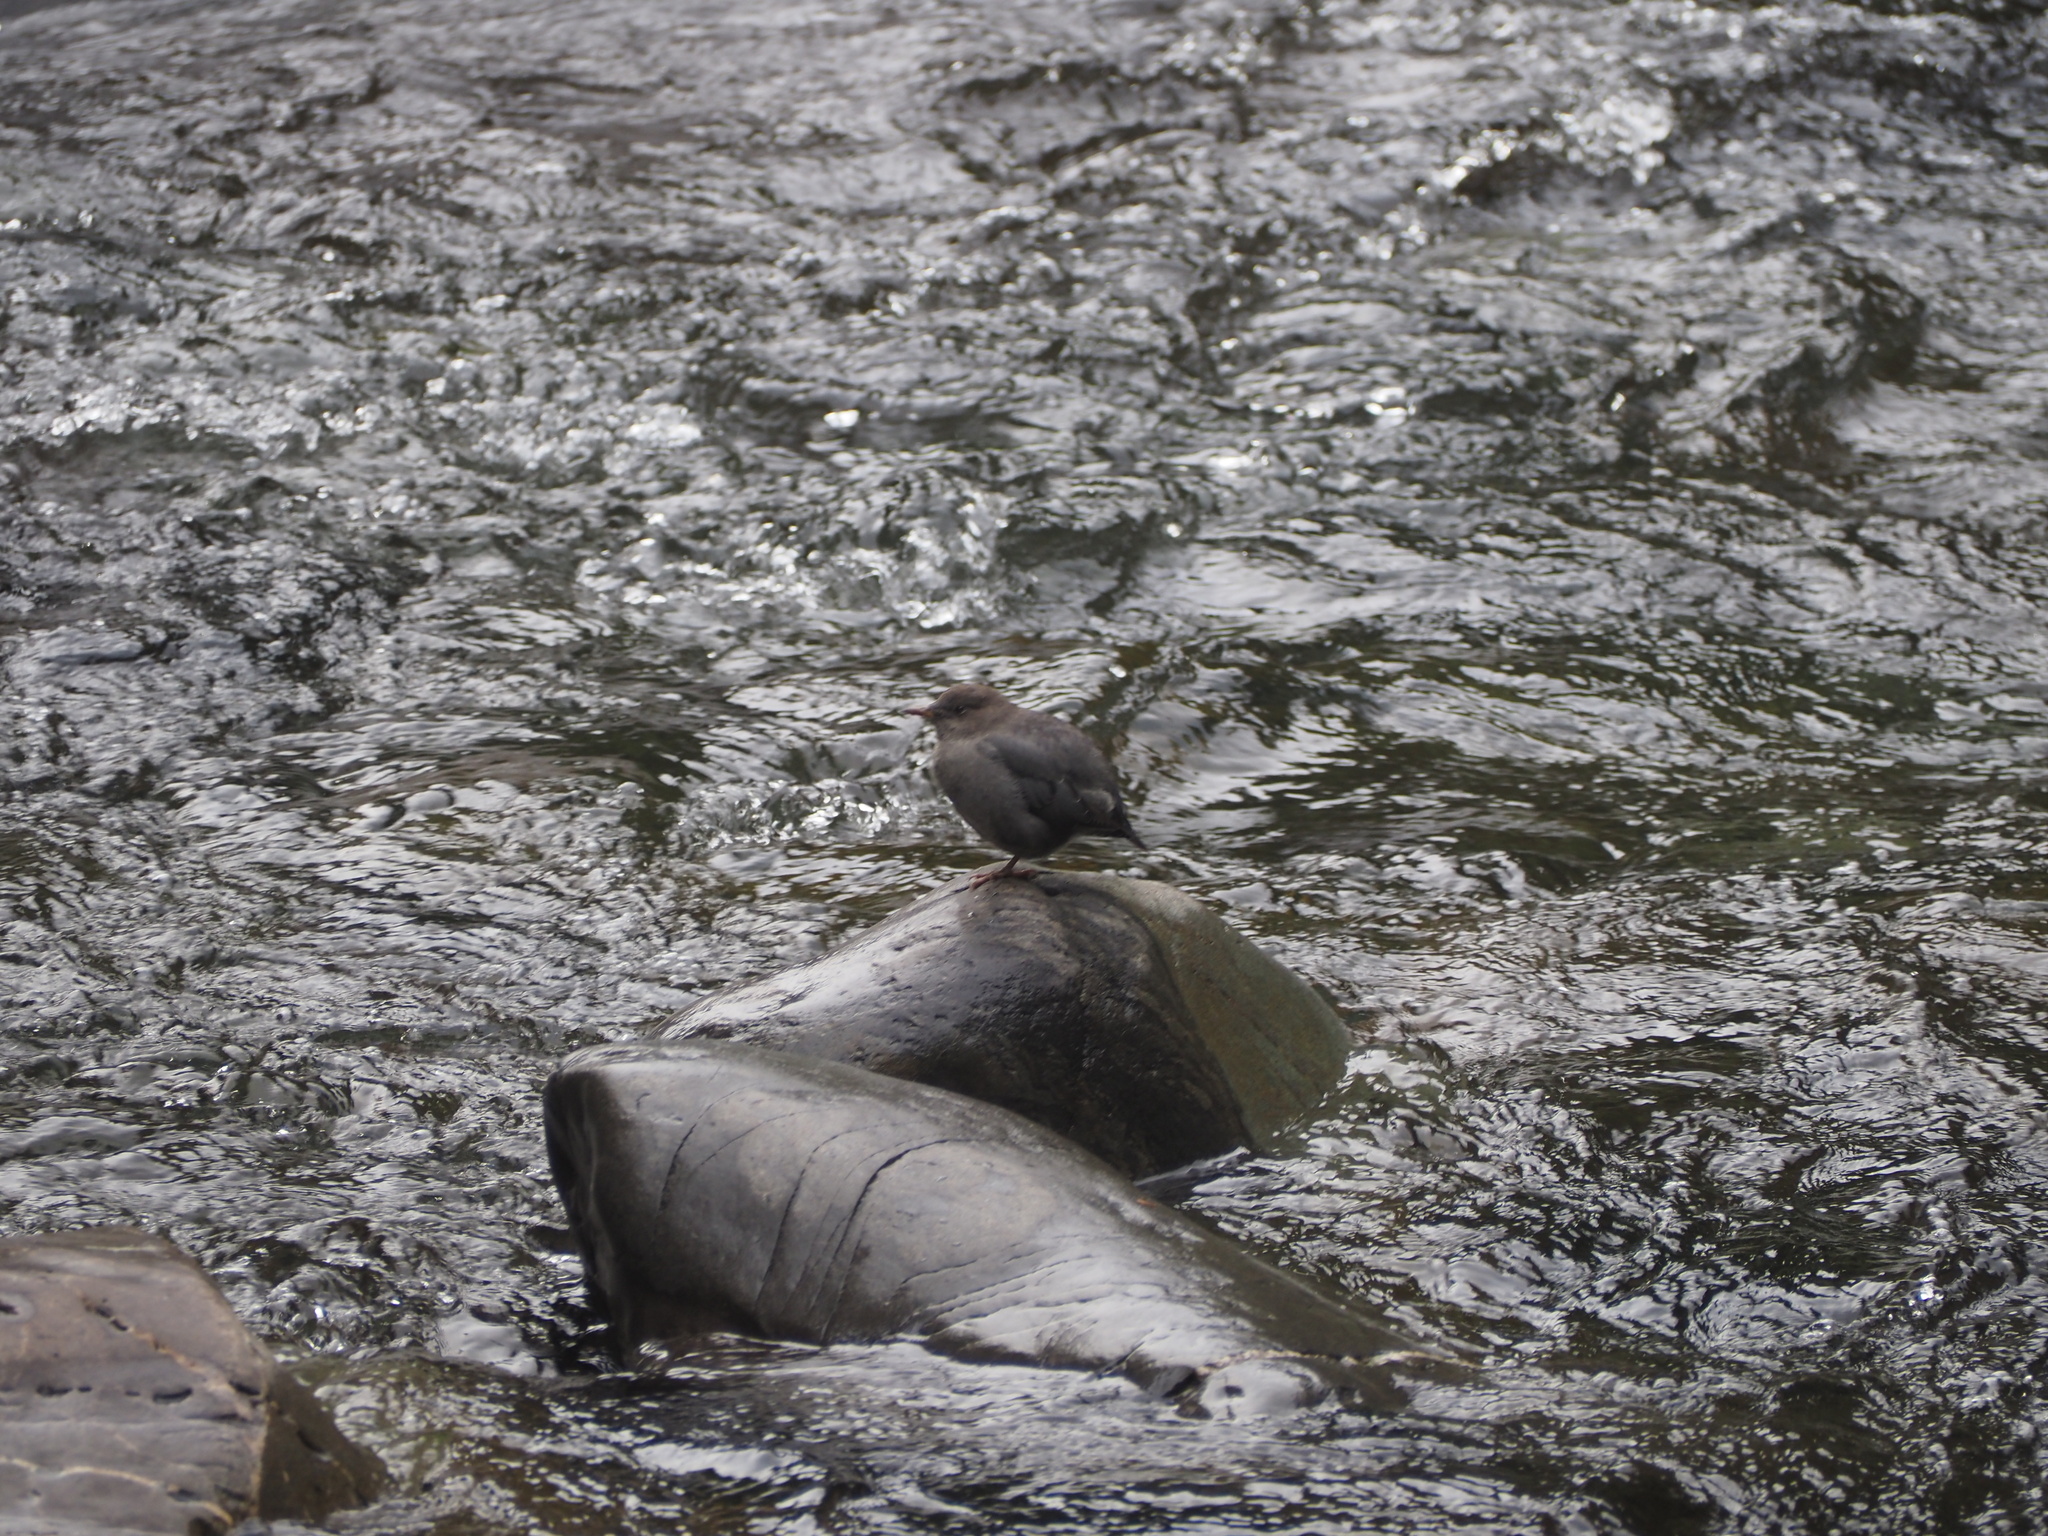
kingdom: Animalia
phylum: Chordata
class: Aves
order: Passeriformes
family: Cinclidae
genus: Cinclus
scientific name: Cinclus mexicanus
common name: American dipper
